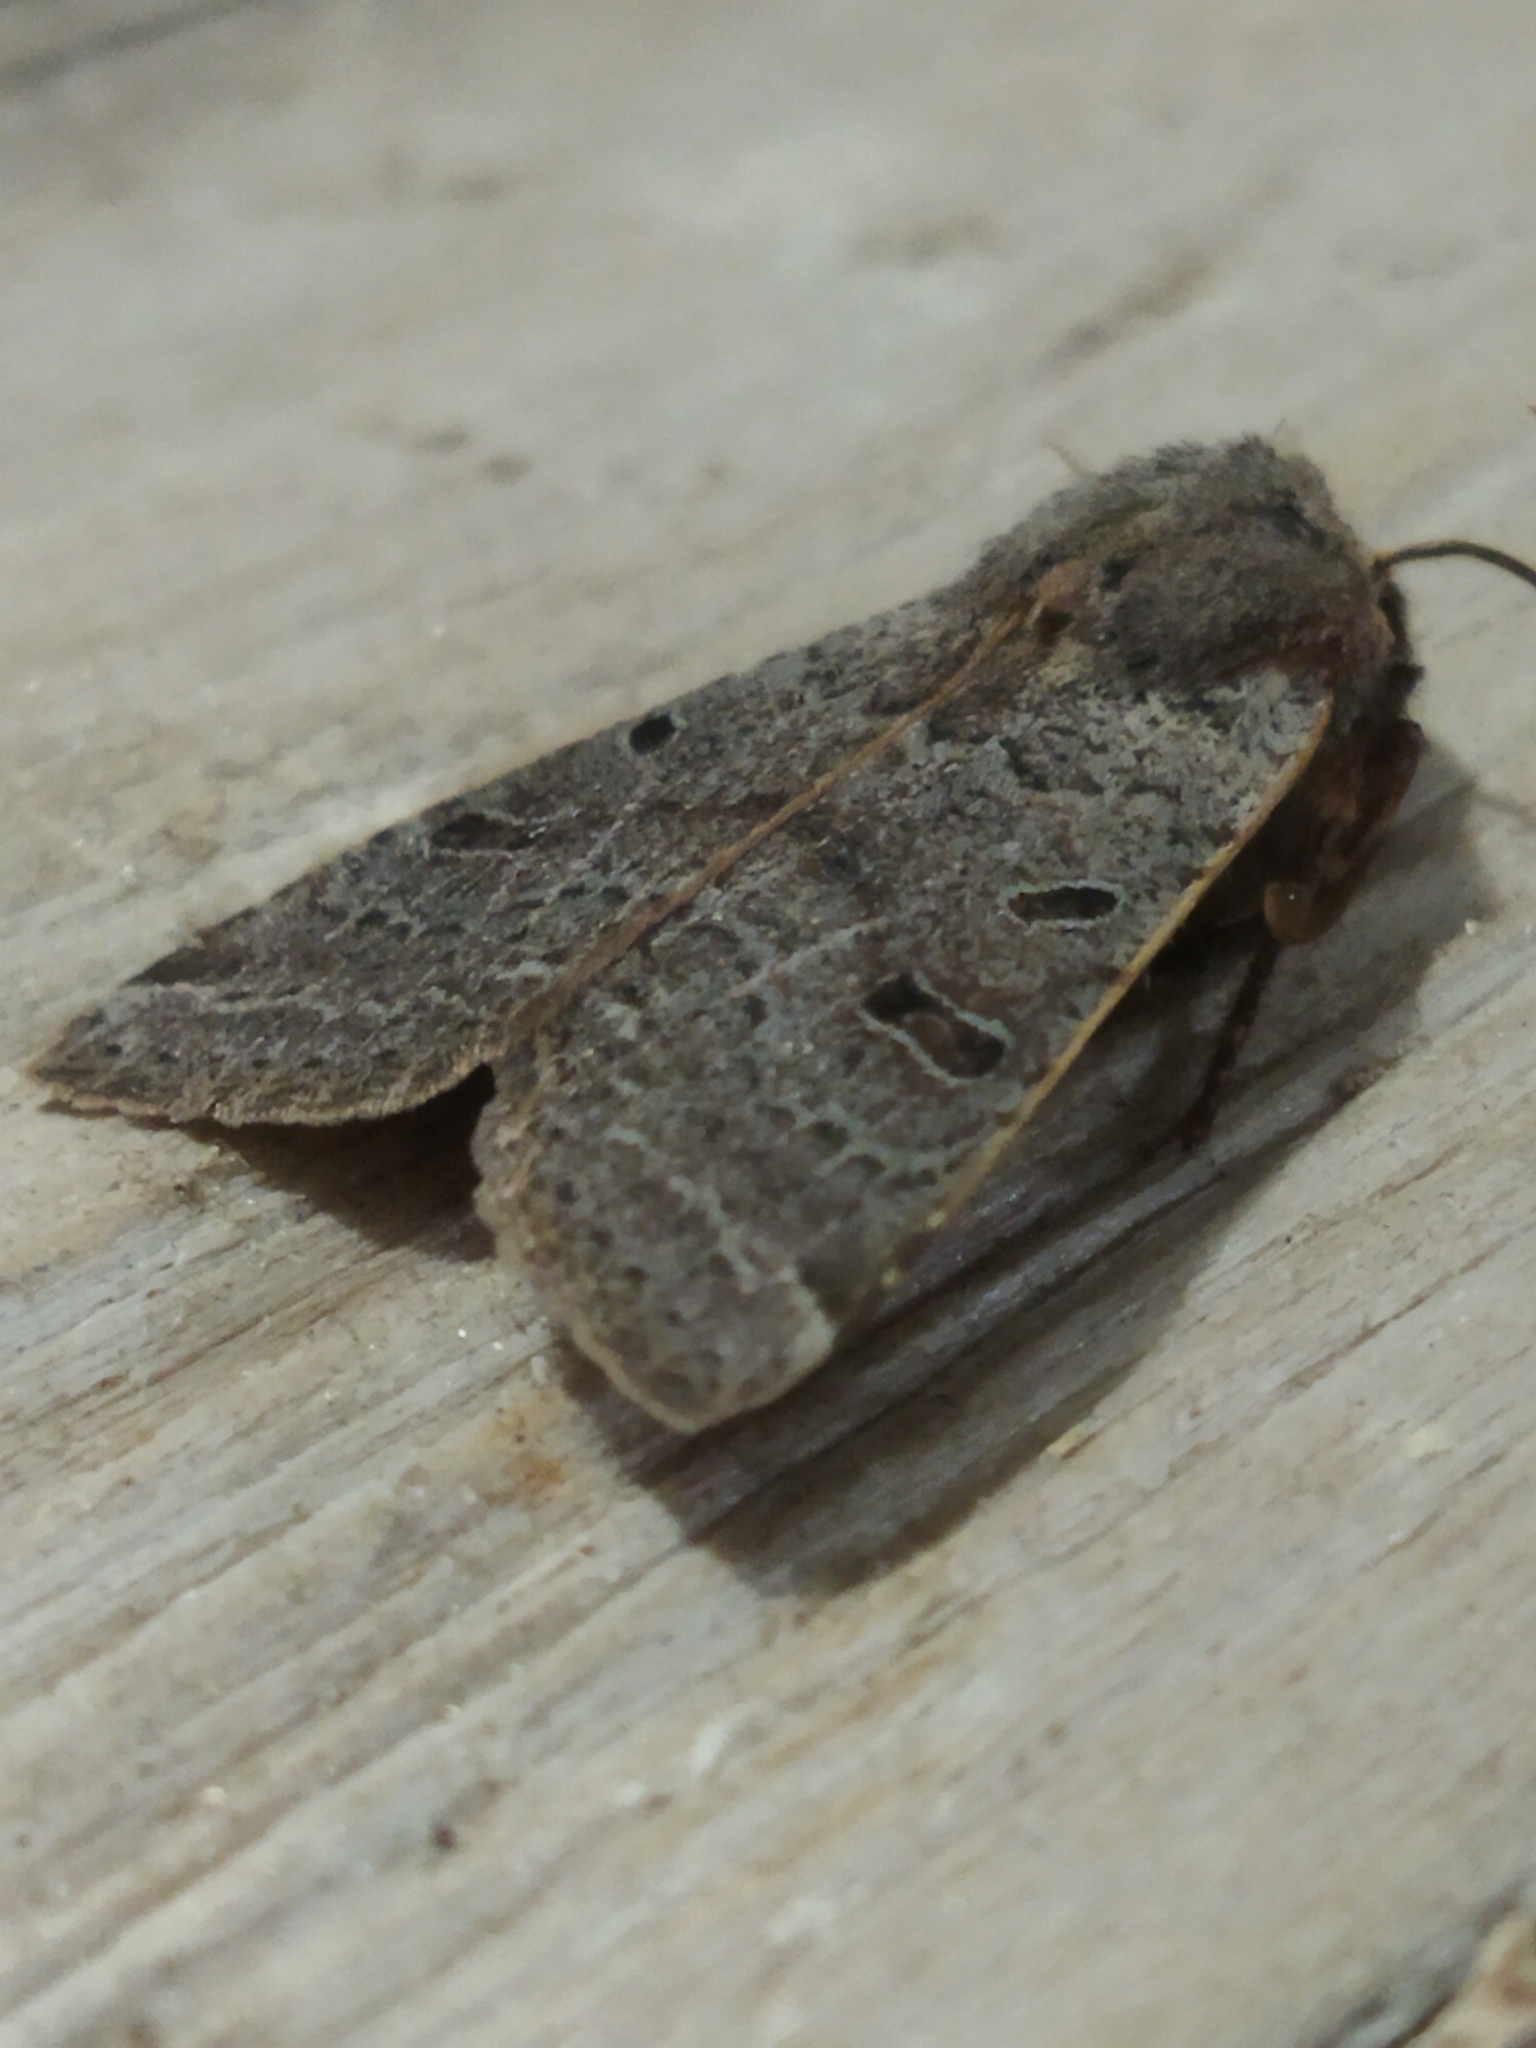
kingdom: Animalia
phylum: Arthropoda
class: Insecta
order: Lepidoptera
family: Noctuidae
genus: Agrochola
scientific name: Agrochola lychnidis
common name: Beaded chestnut
